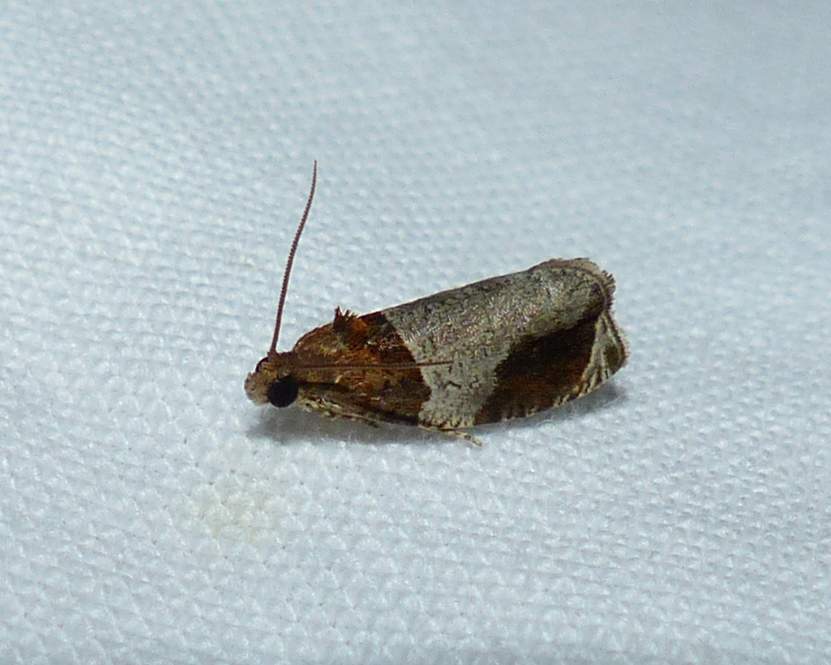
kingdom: Animalia
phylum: Arthropoda
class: Insecta
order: Lepidoptera
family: Tortricidae
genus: Olethreutes
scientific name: Olethreutes ferriferana
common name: Hydrangea leaftier moth
